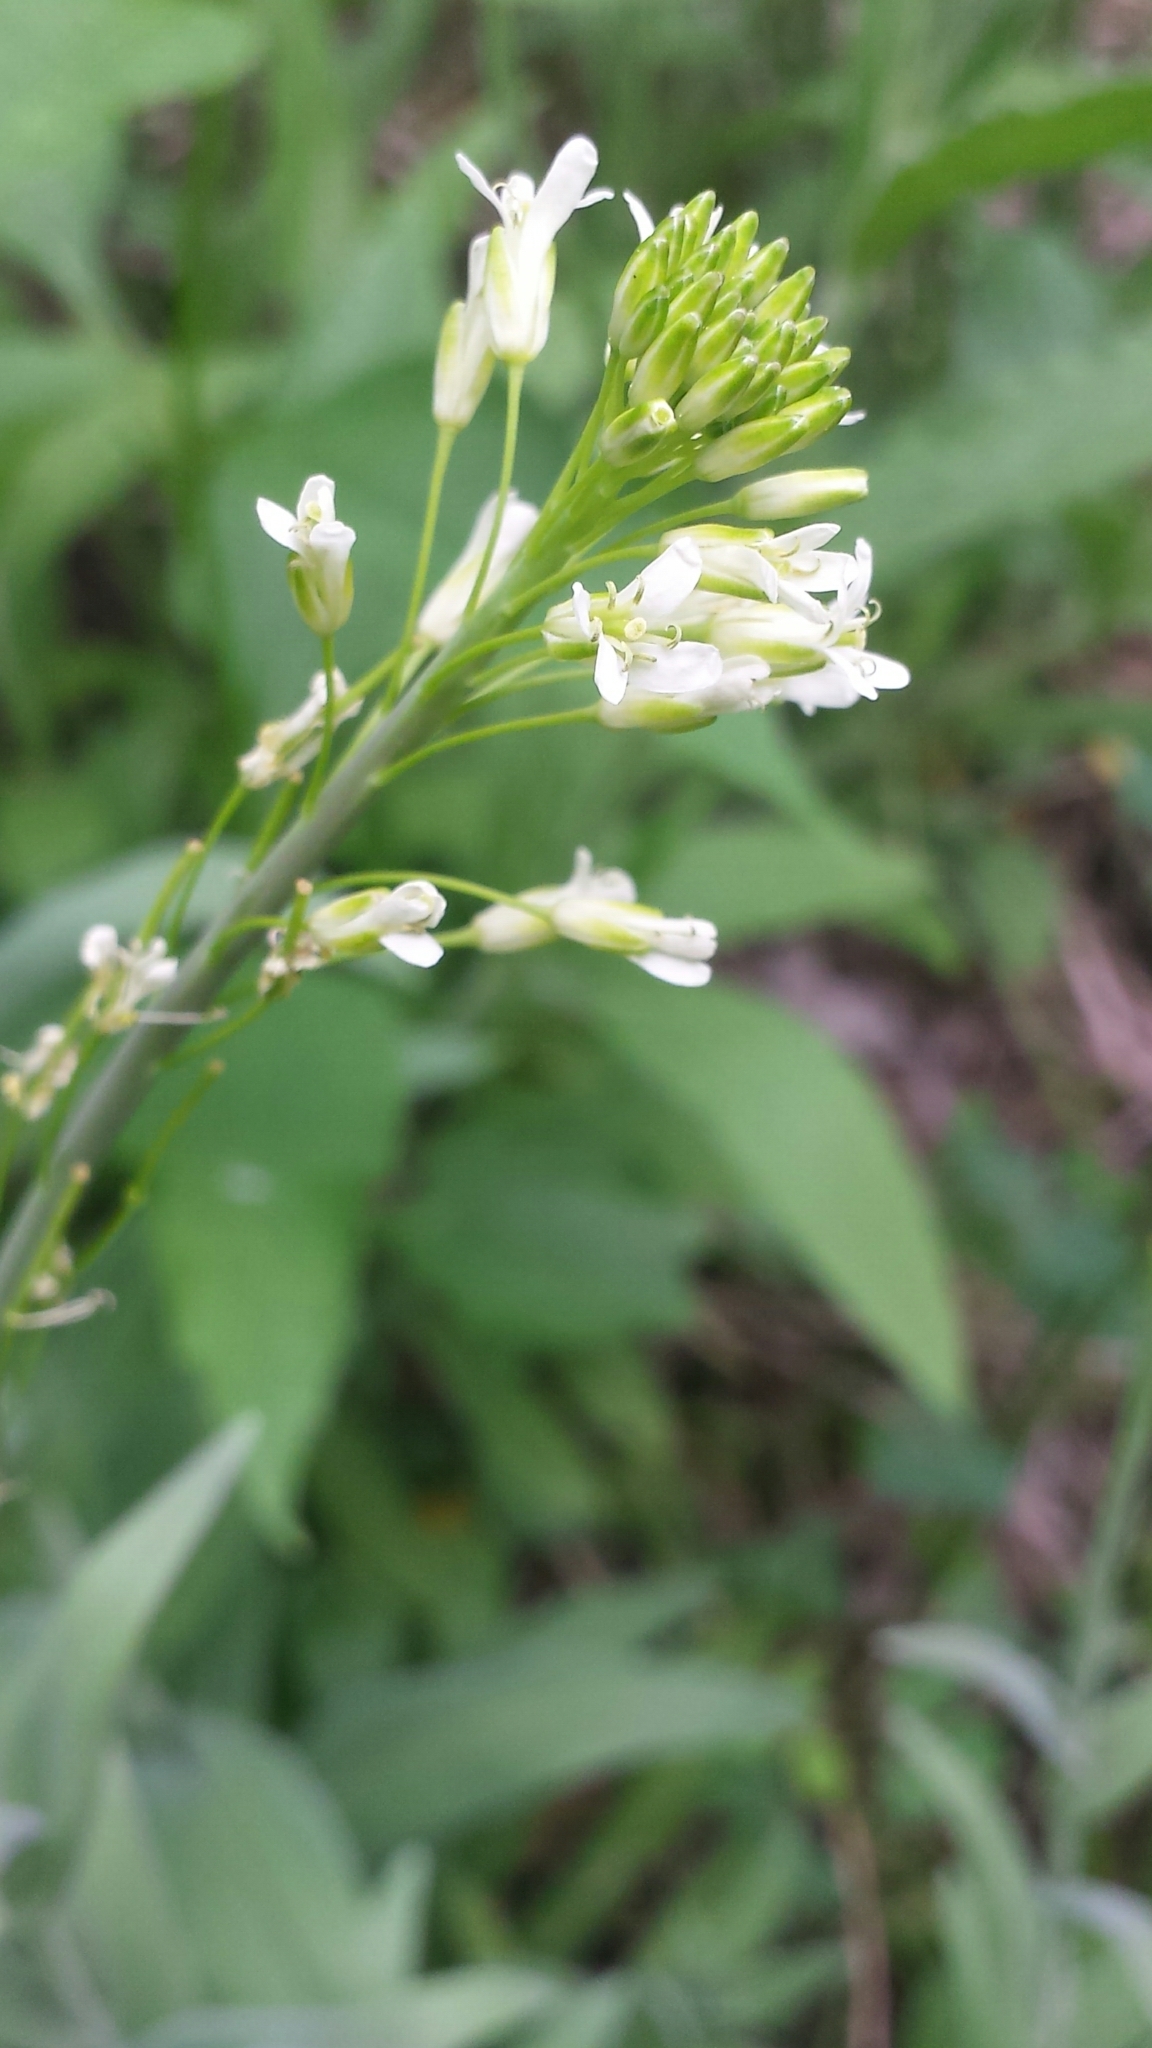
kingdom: Plantae
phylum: Tracheophyta
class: Magnoliopsida
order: Brassicales
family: Brassicaceae
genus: Turritis
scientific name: Turritis glabra
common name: Tower rockcress
